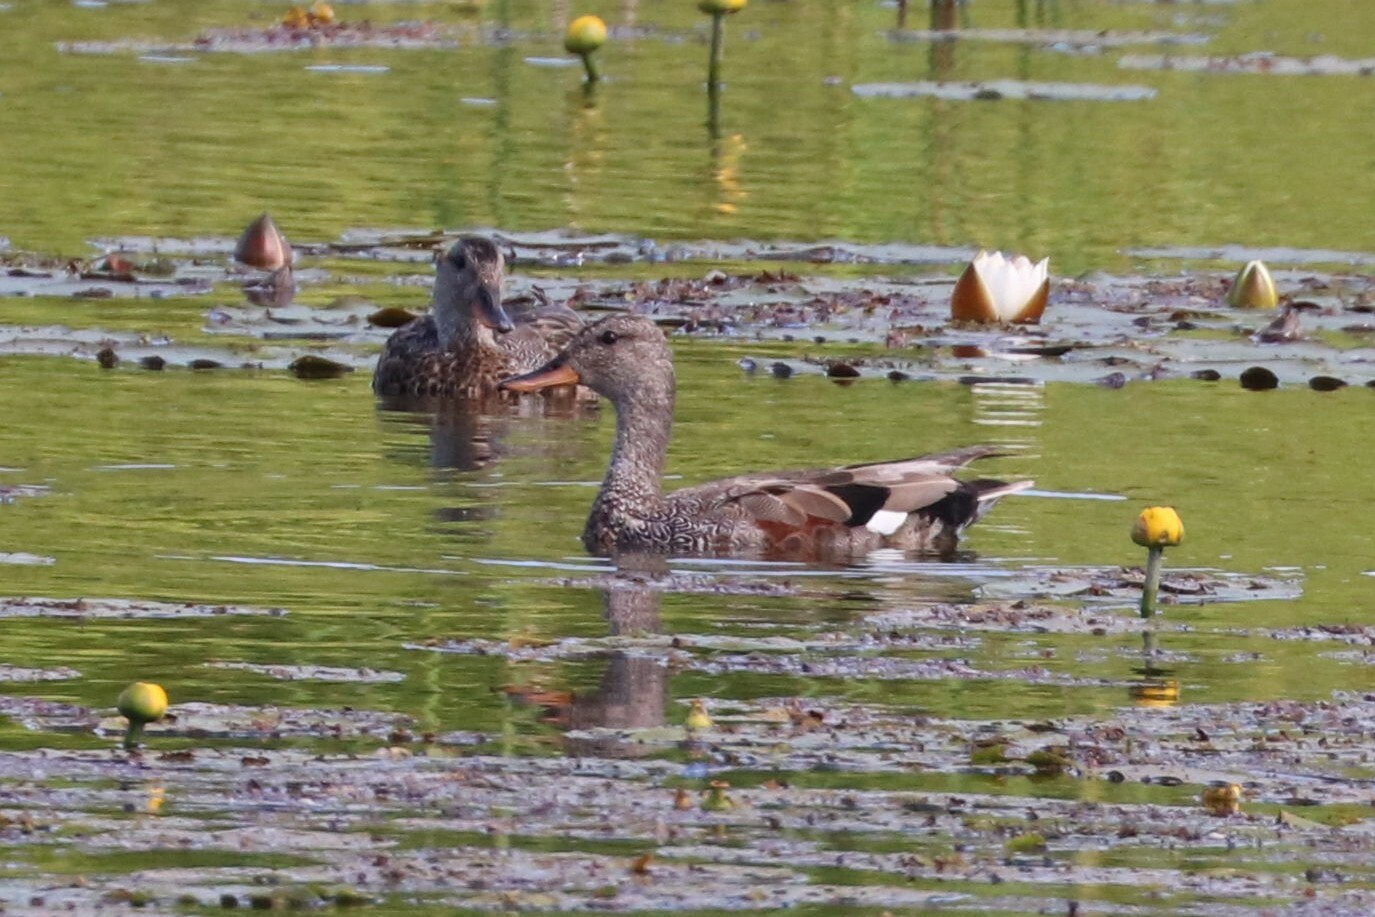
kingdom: Animalia
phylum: Chordata
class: Aves
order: Anseriformes
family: Anatidae
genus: Mareca
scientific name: Mareca strepera
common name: Gadwall
